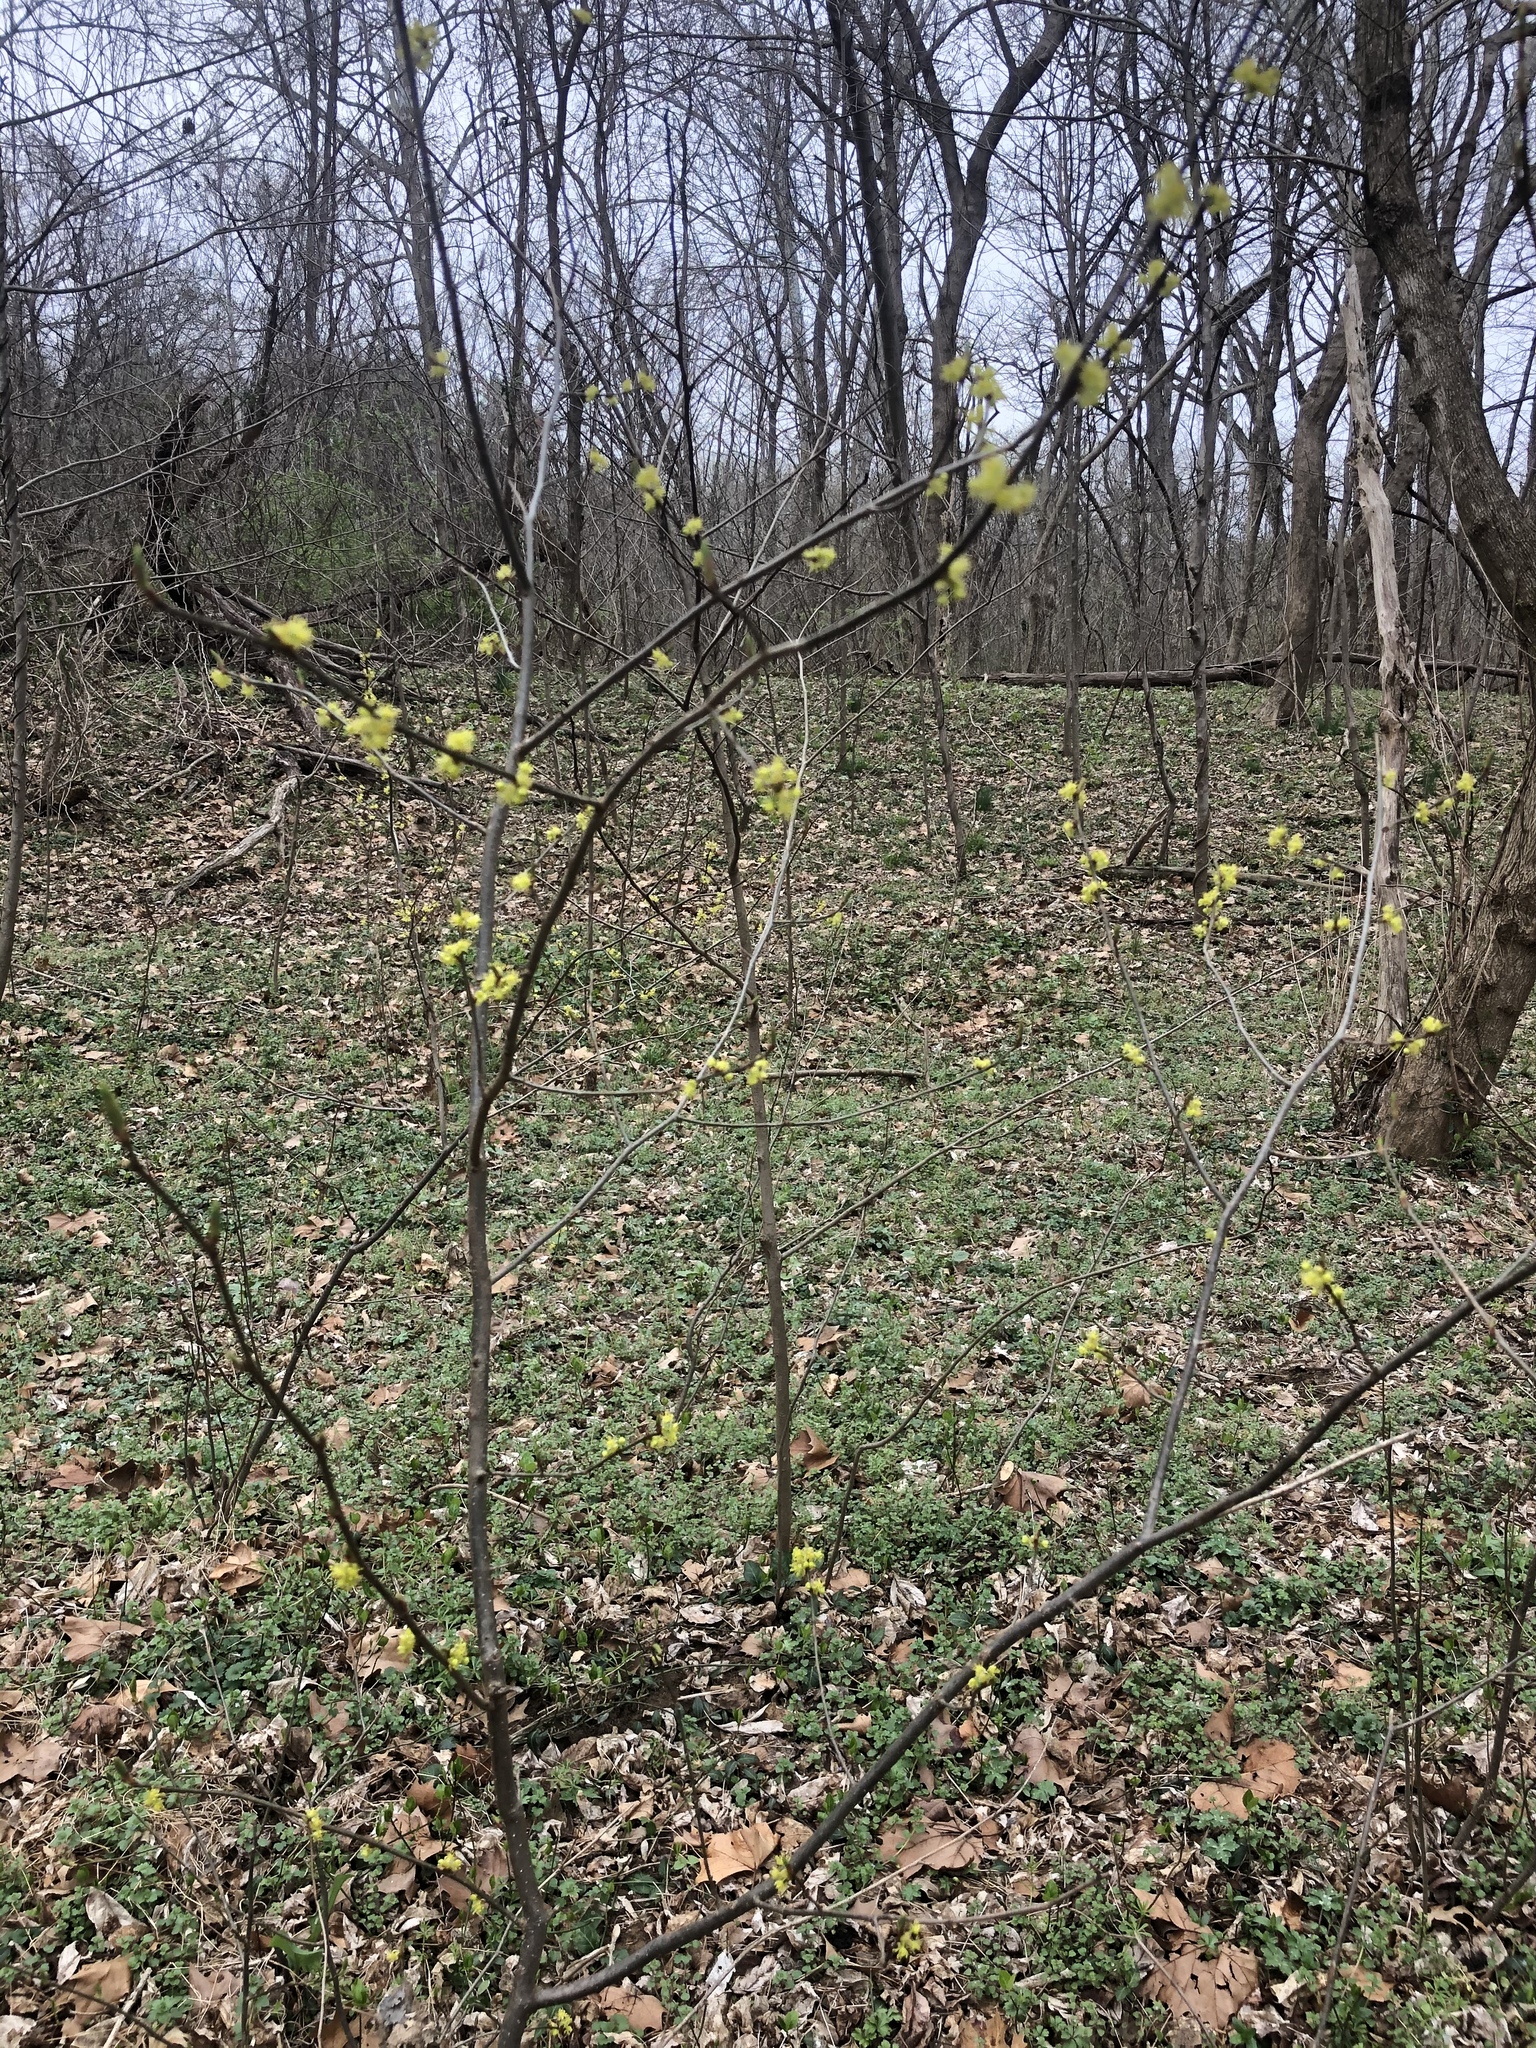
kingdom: Plantae
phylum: Tracheophyta
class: Magnoliopsida
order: Laurales
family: Lauraceae
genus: Lindera
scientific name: Lindera benzoin
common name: Spicebush
